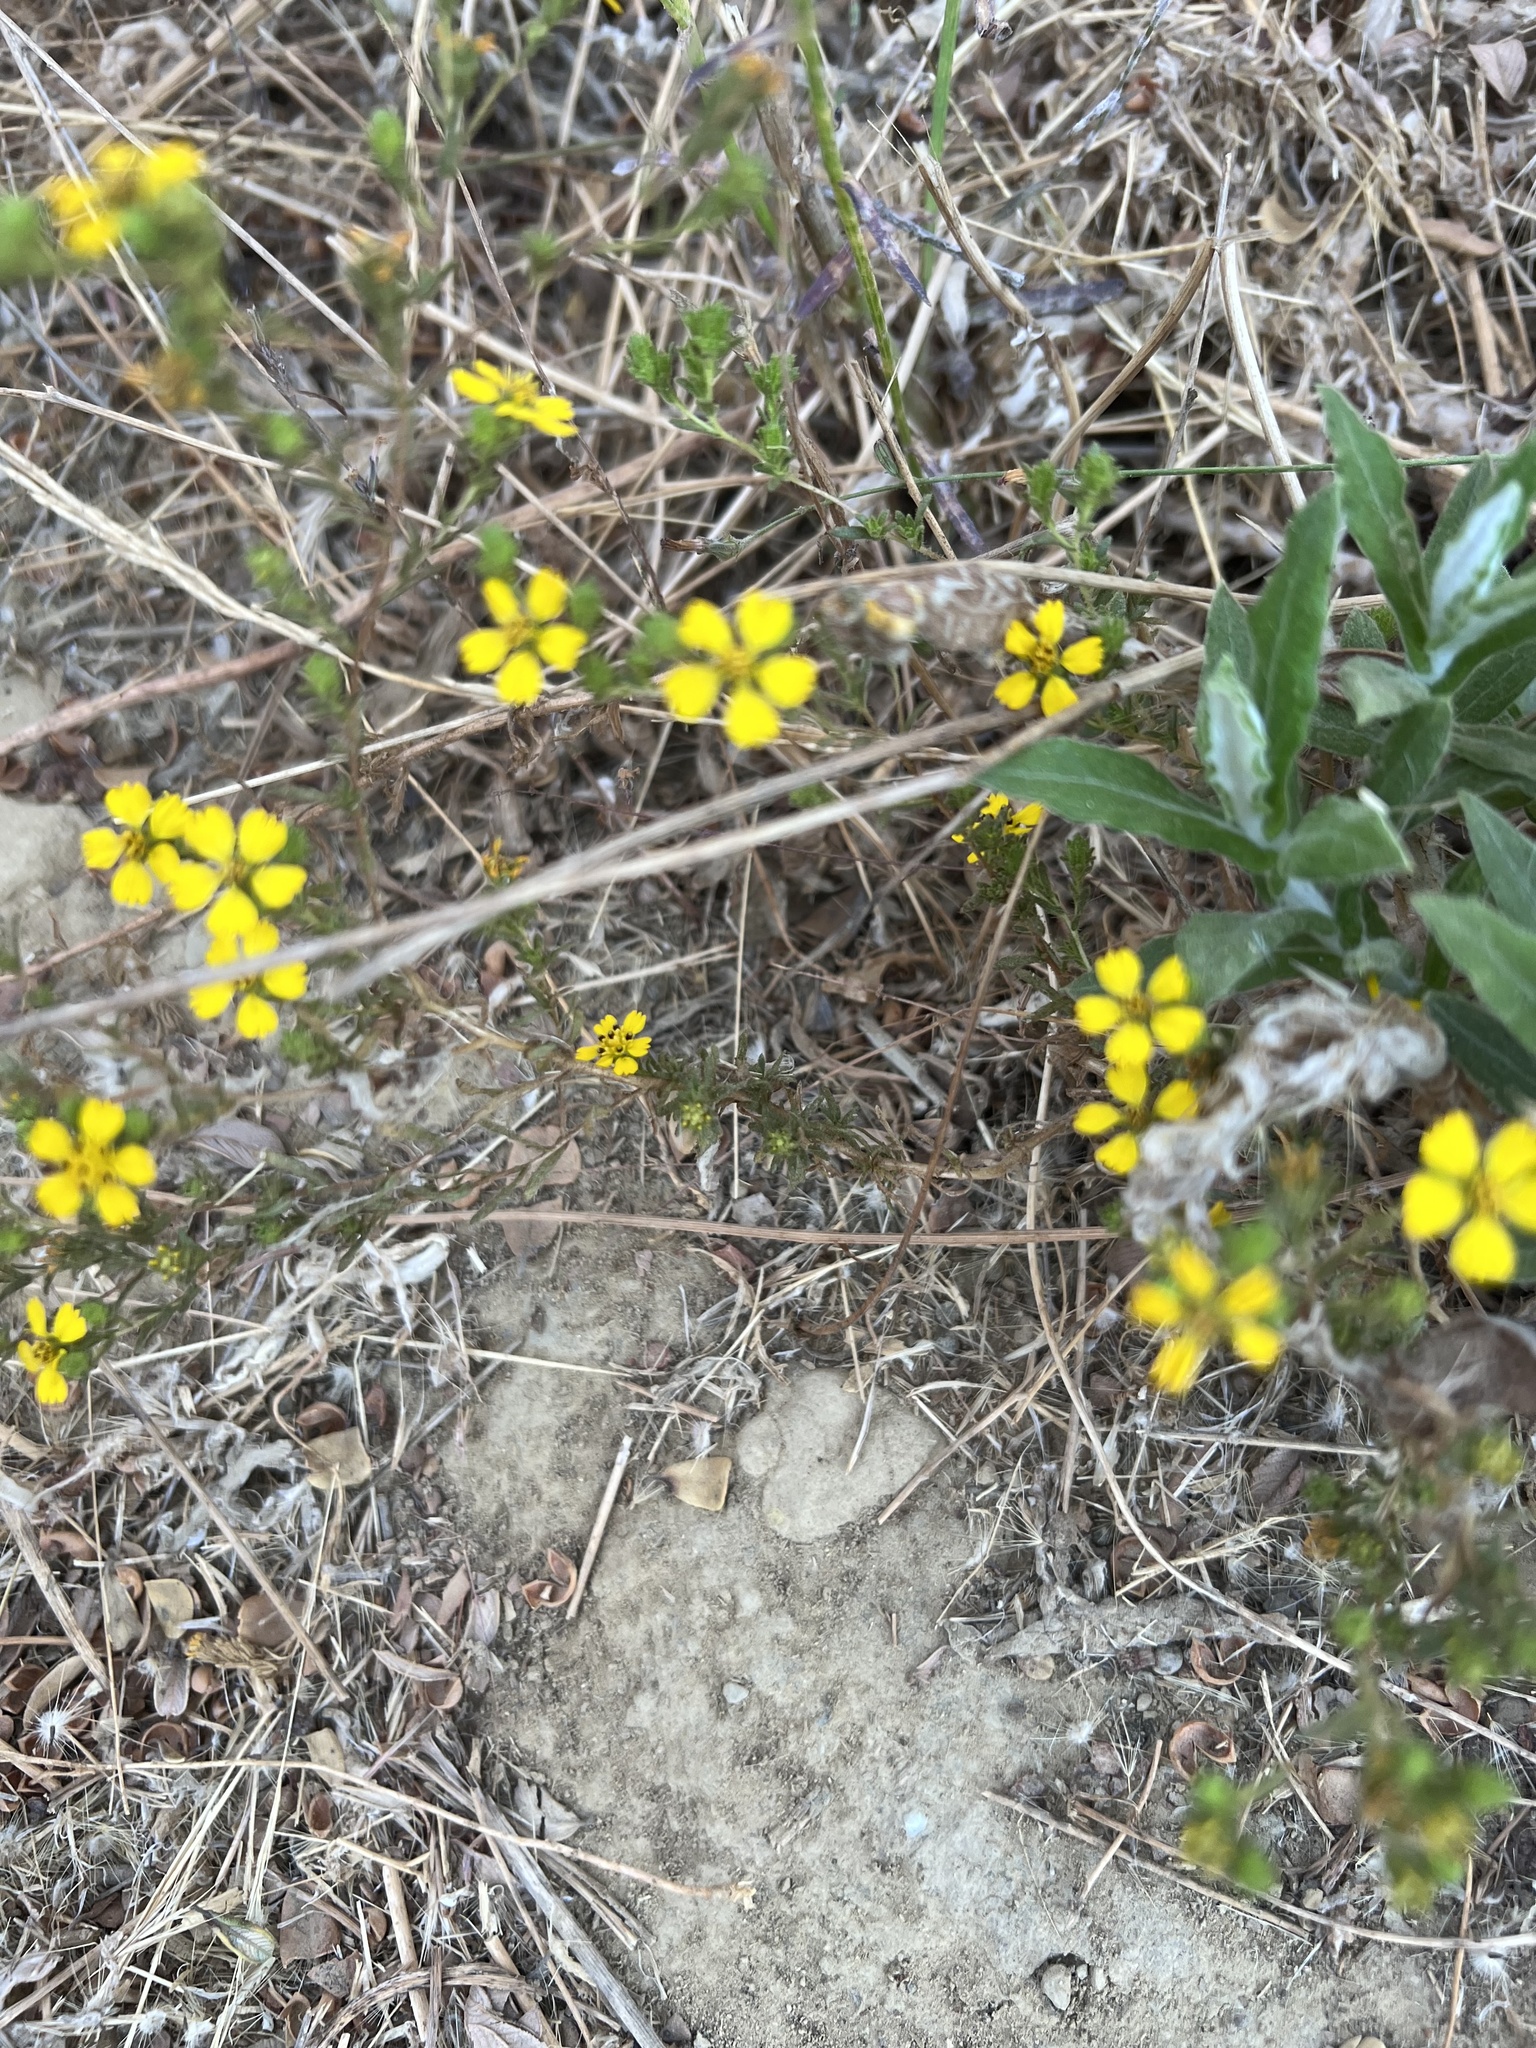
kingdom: Plantae
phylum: Tracheophyta
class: Magnoliopsida
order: Asterales
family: Asteraceae
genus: Deinandra
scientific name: Deinandra fasciculata
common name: Clustered tarweed
